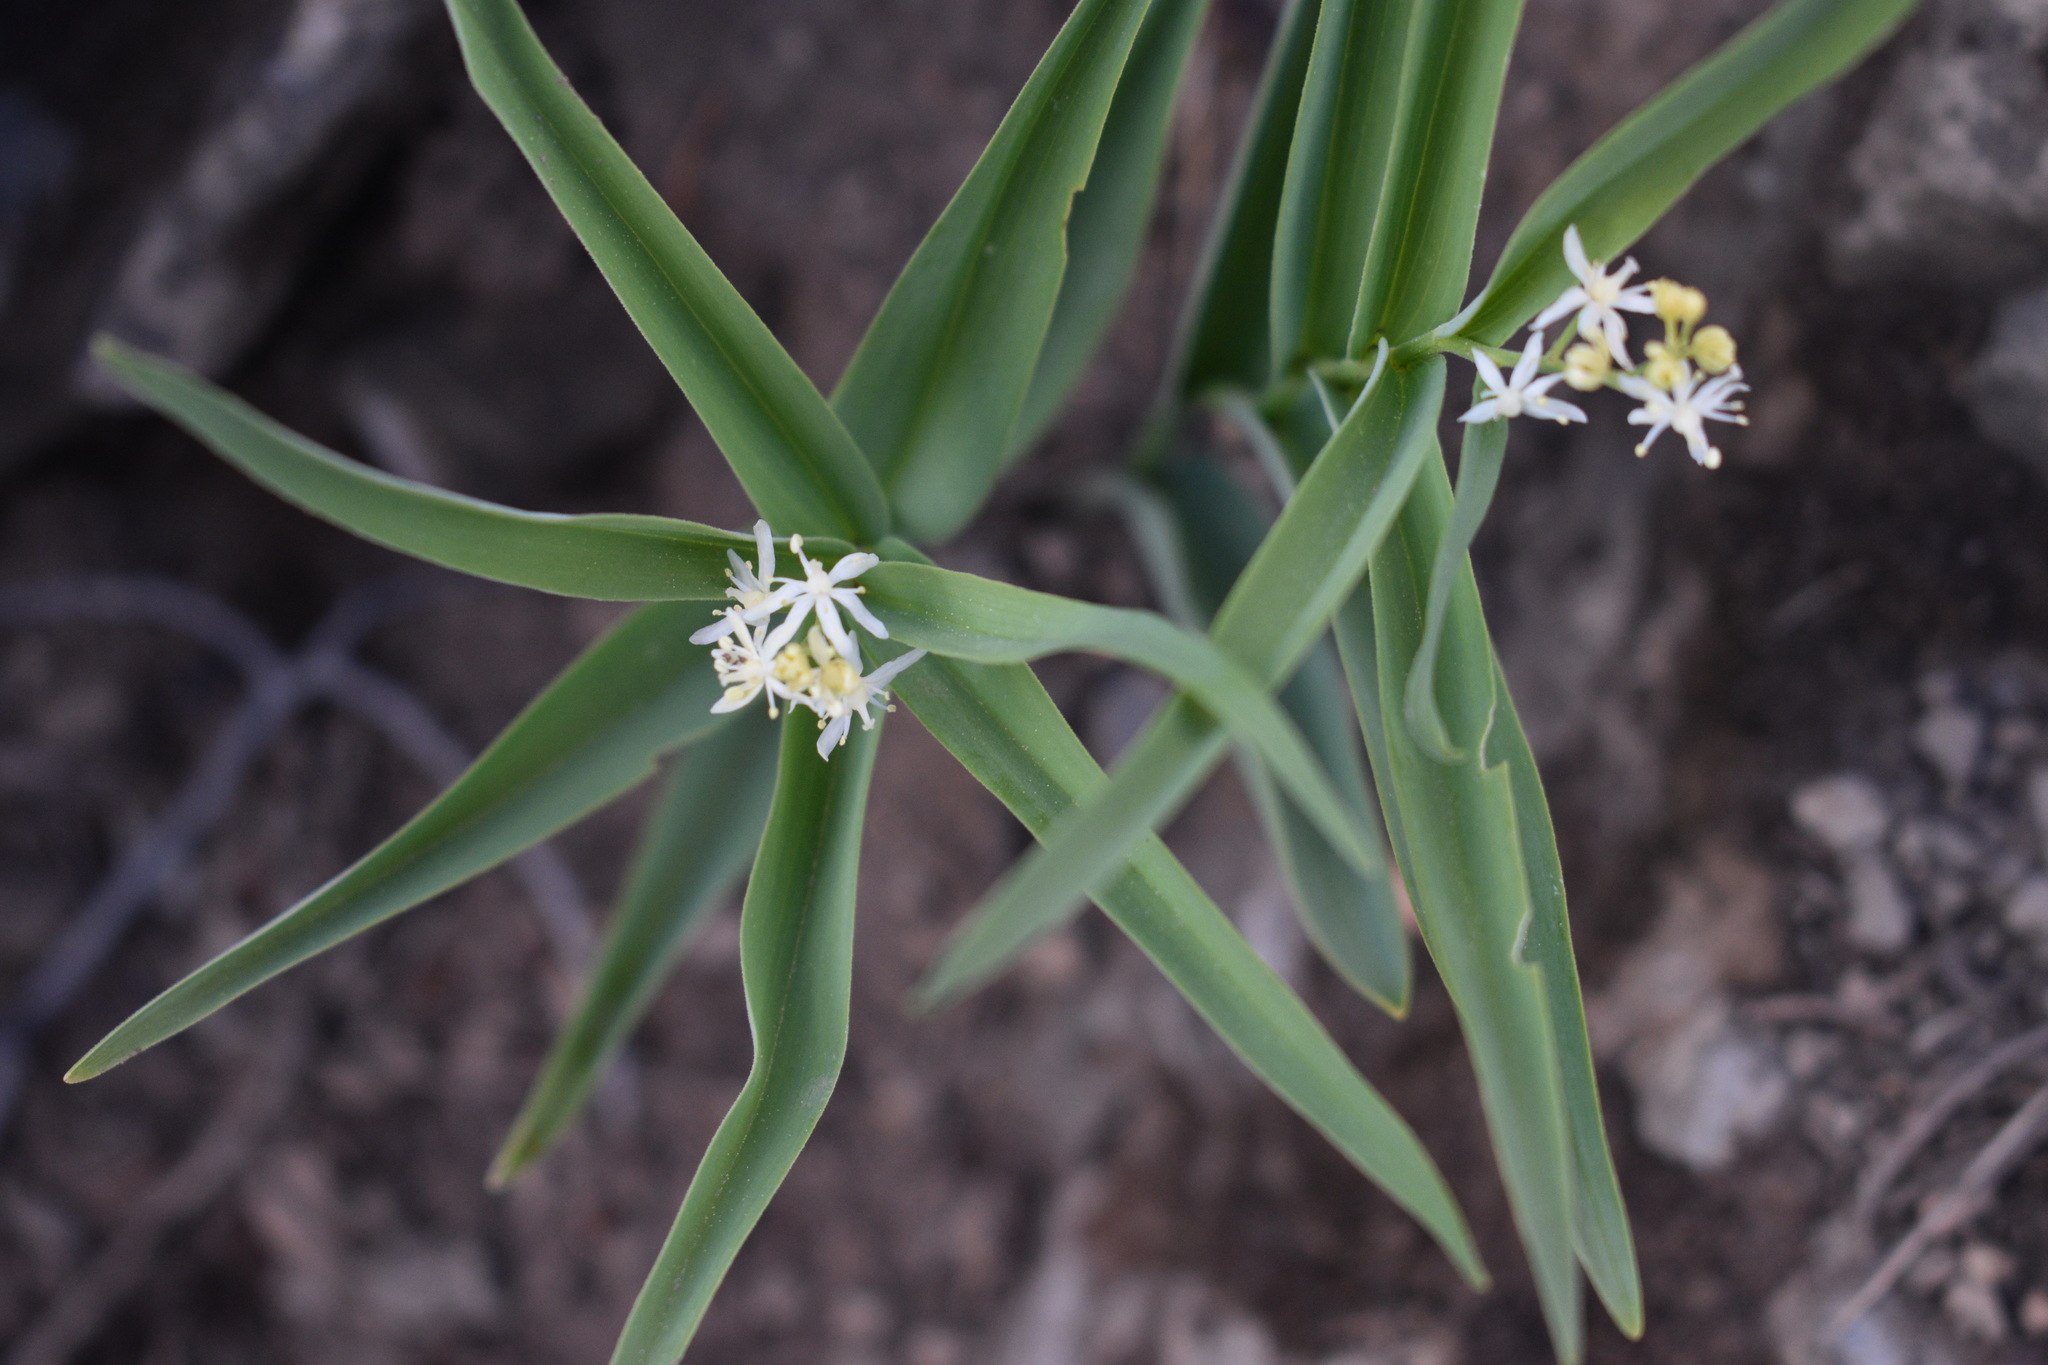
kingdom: Plantae
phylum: Tracheophyta
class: Liliopsida
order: Asparagales
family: Asparagaceae
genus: Maianthemum
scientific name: Maianthemum stellatum
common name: Little false solomon's seal
